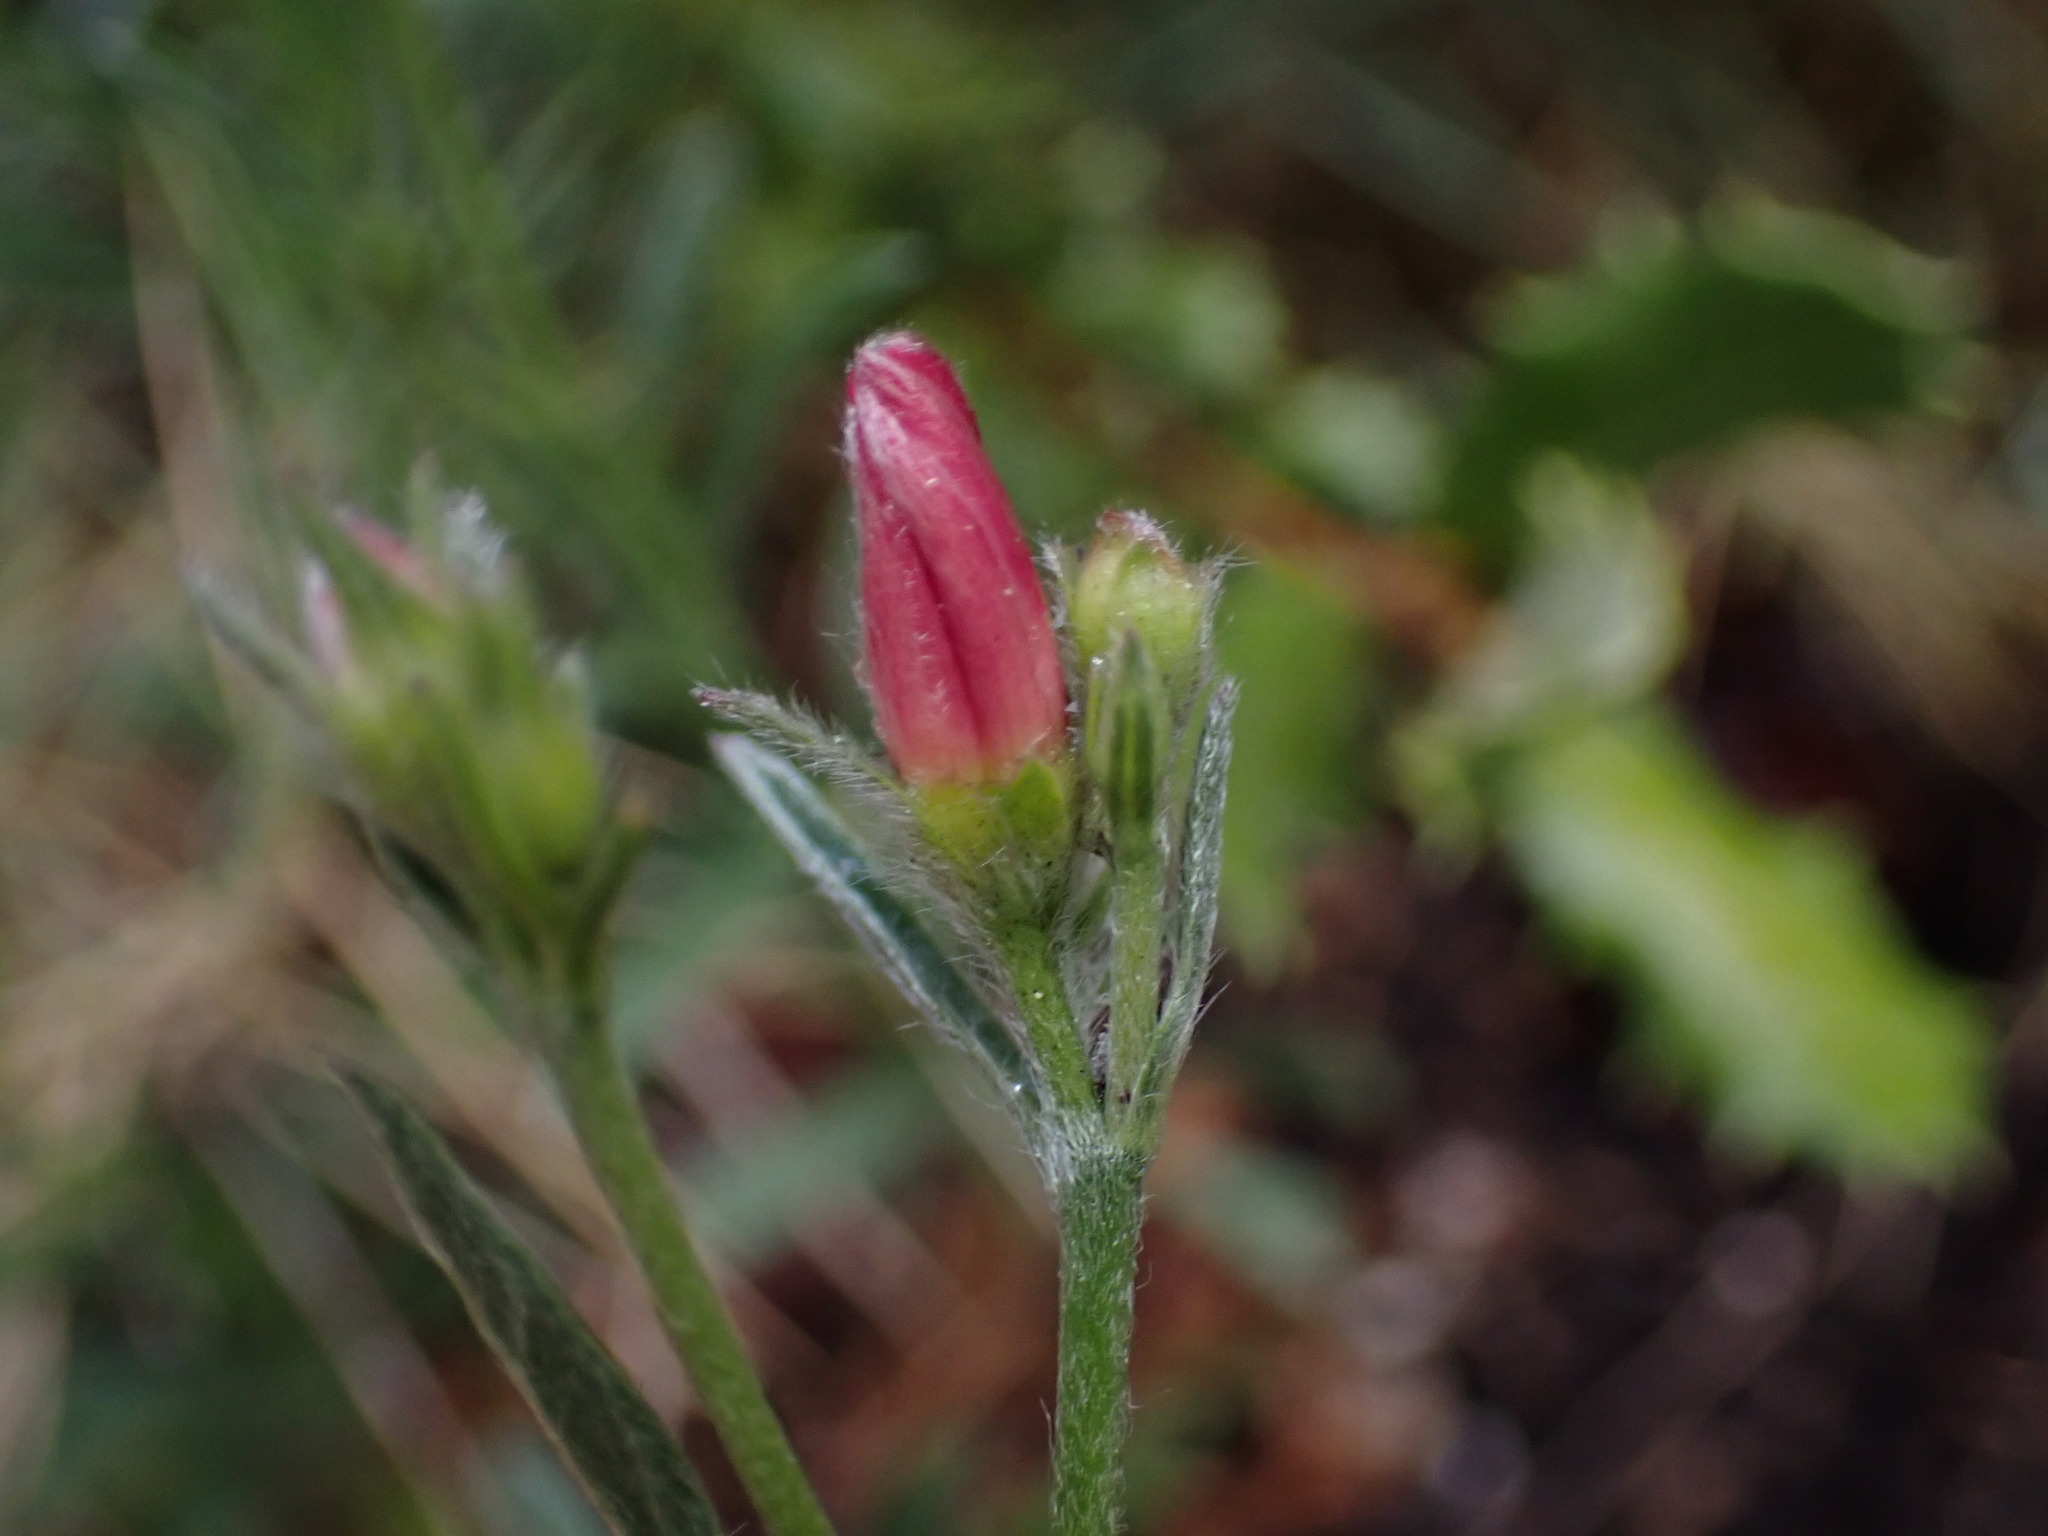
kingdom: Plantae
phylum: Tracheophyta
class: Magnoliopsida
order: Solanales
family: Convolvulaceae
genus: Convolvulus
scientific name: Convolvulus cantabrica
